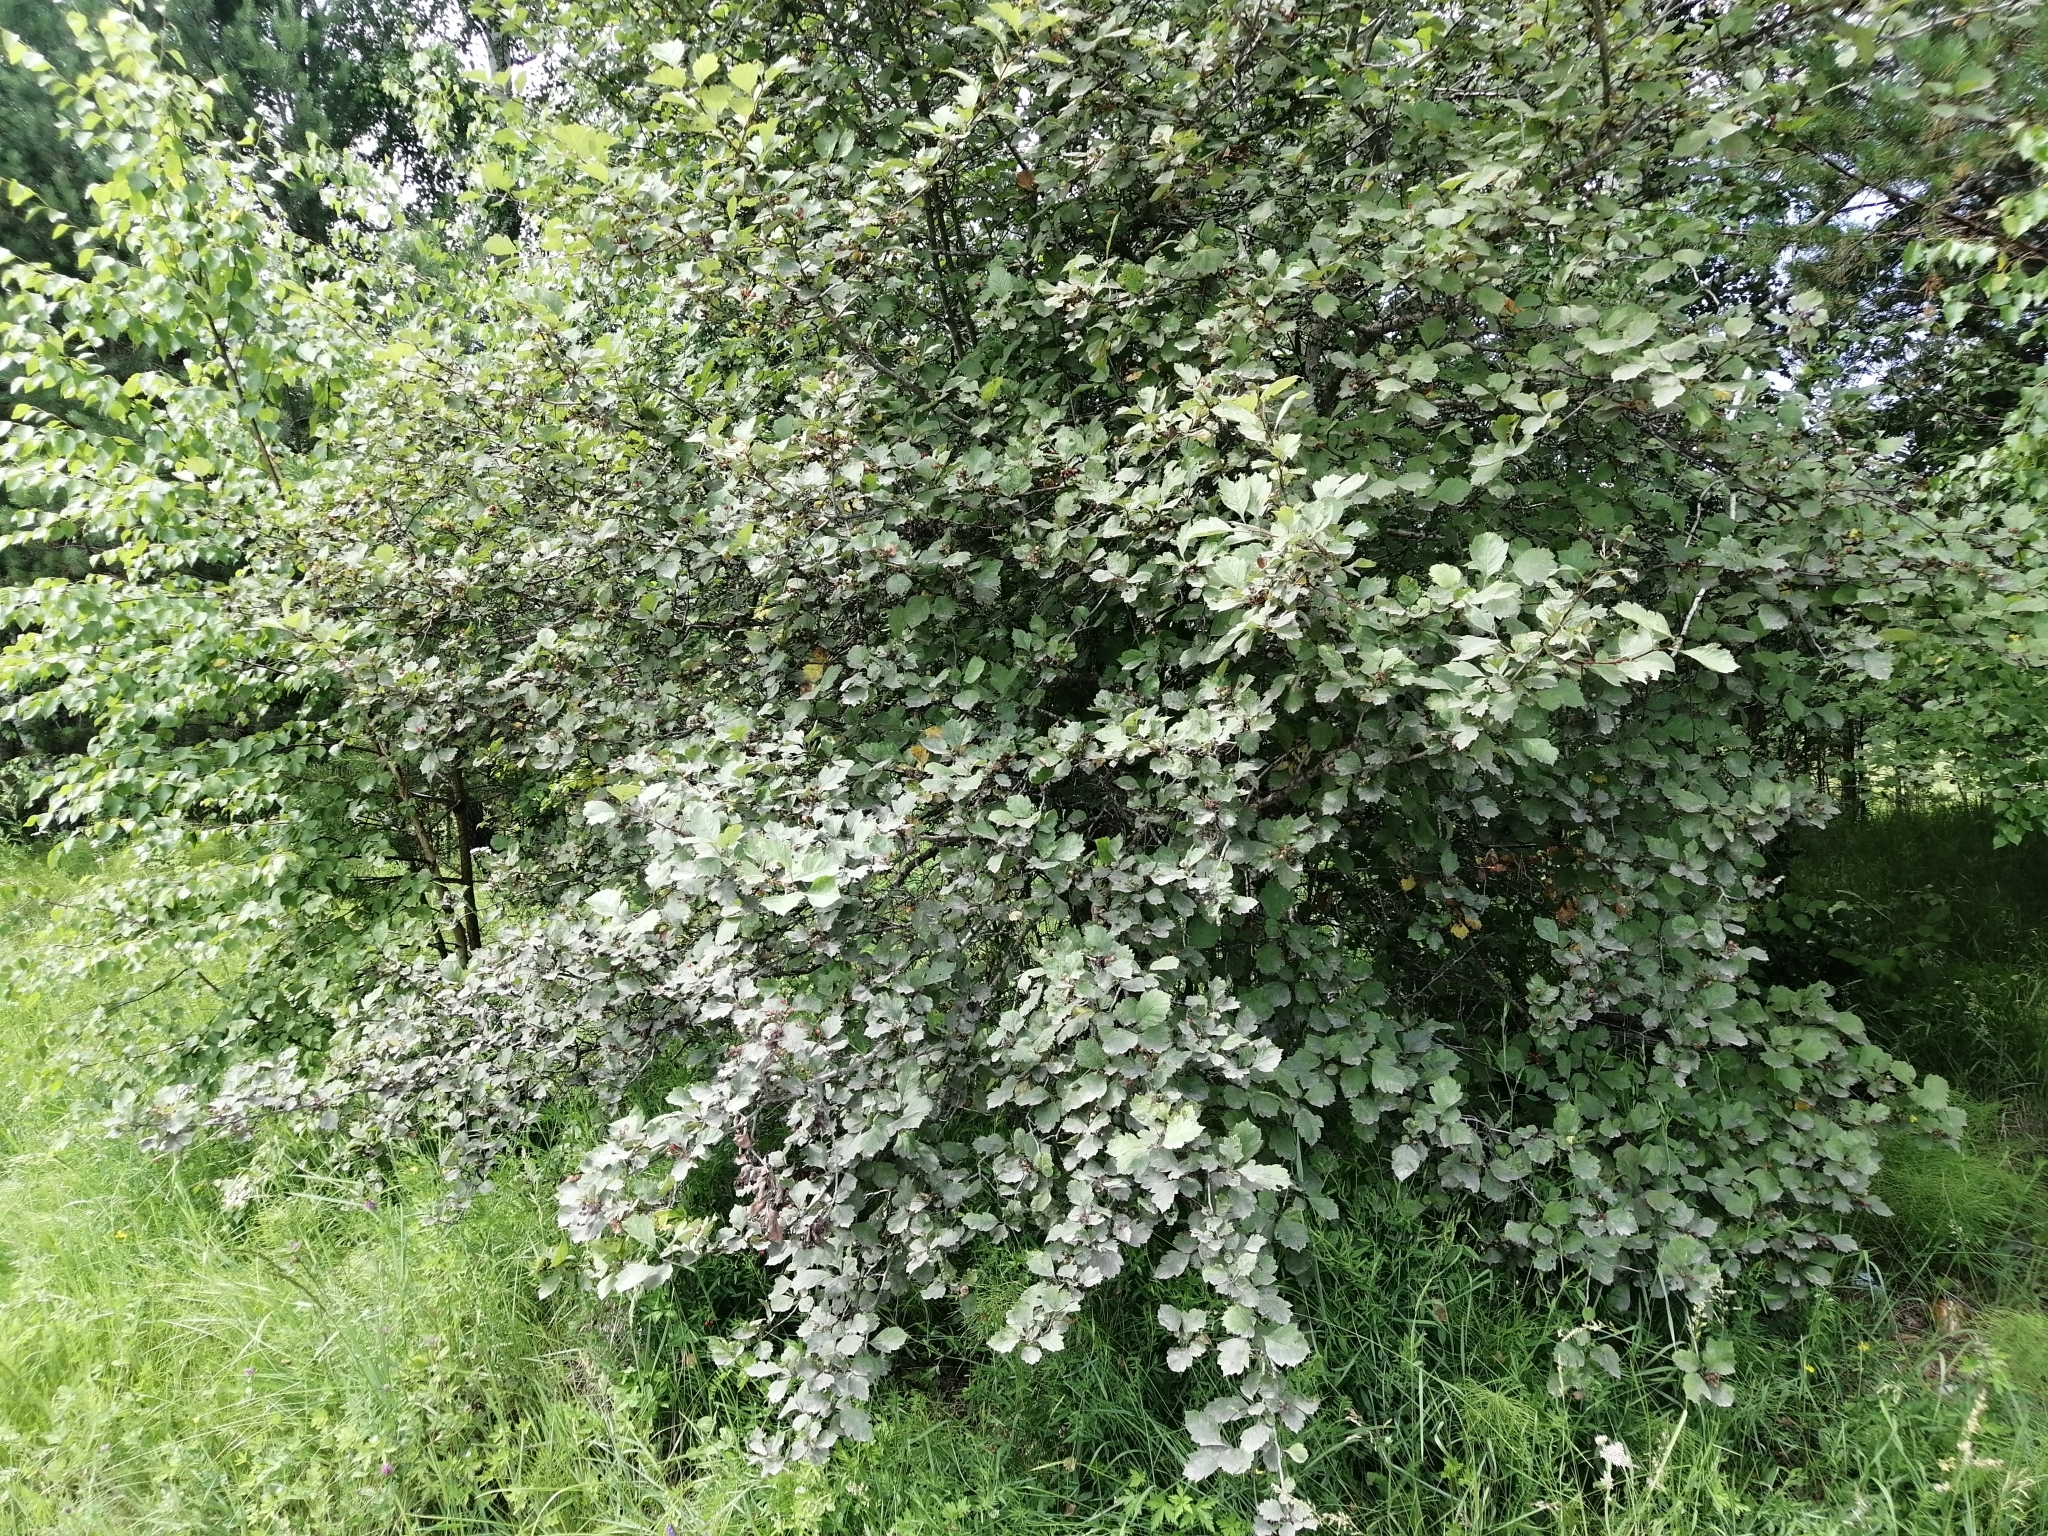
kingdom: Plantae
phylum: Tracheophyta
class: Magnoliopsida
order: Rosales
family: Rosaceae
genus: Crataegus
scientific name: Crataegus sanguinea
